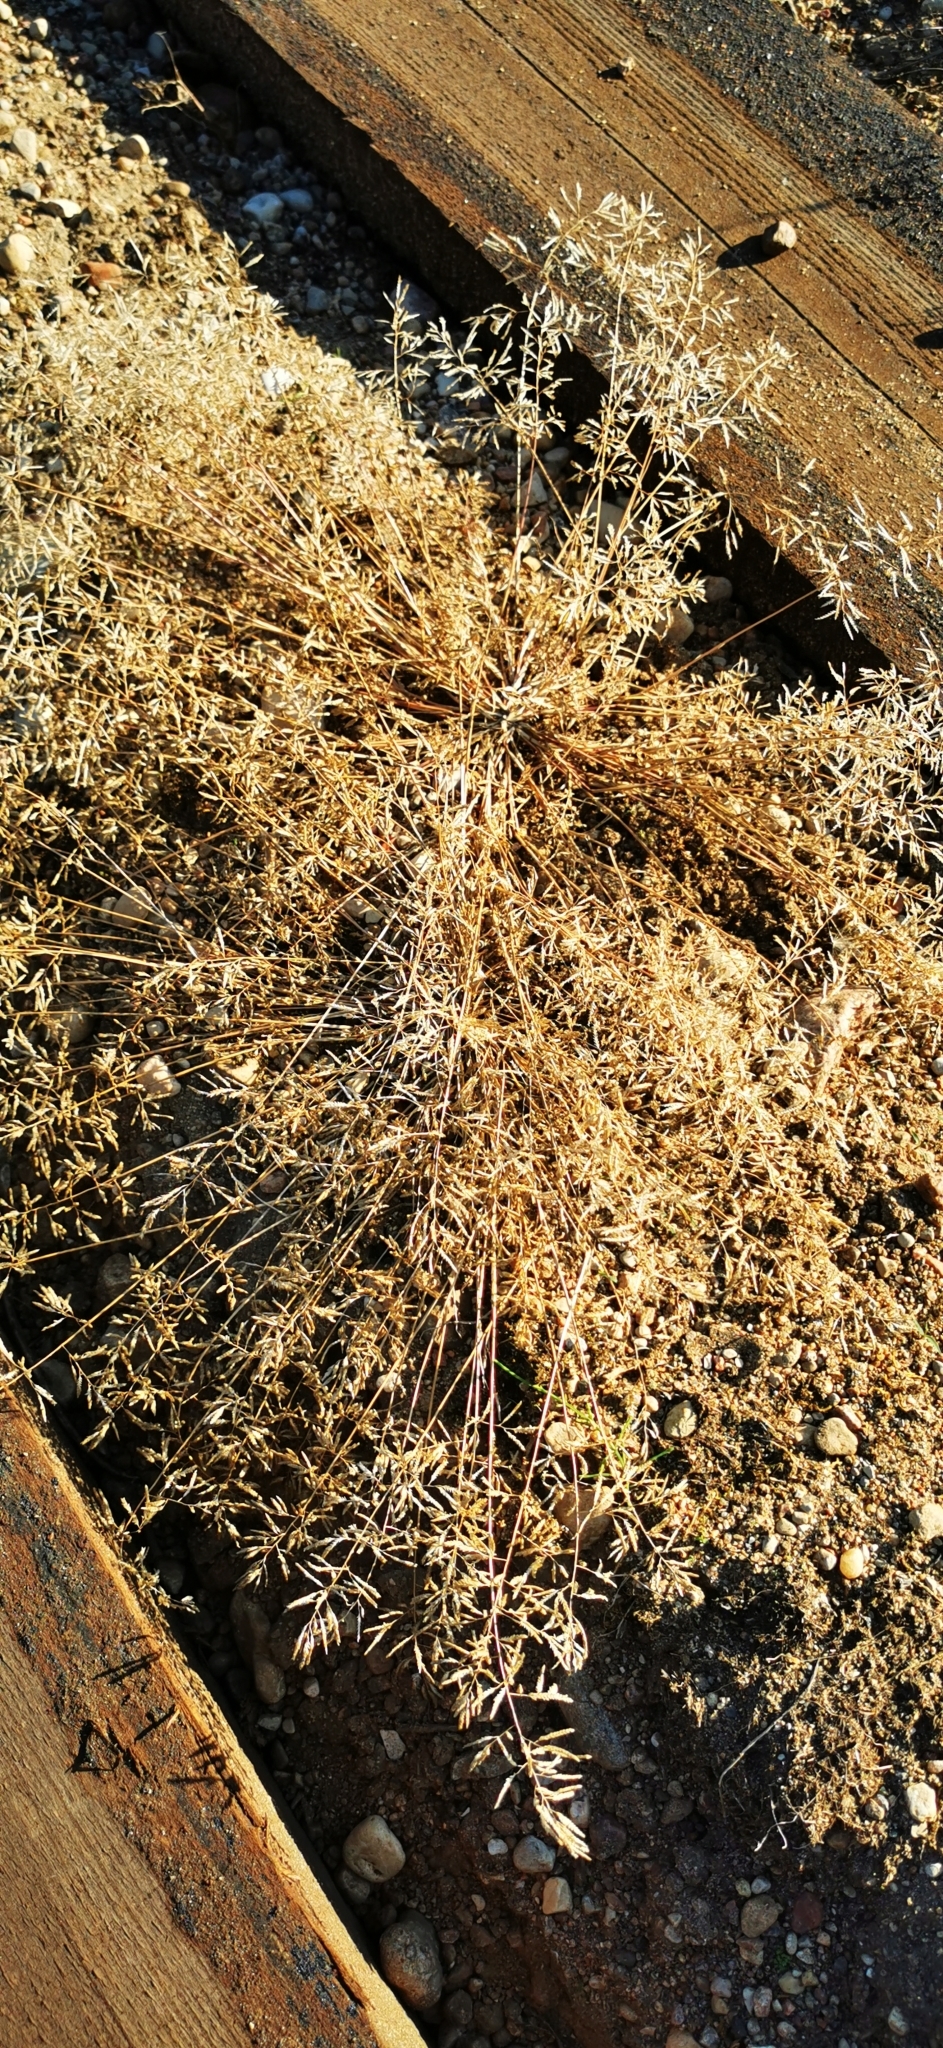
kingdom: Plantae
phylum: Tracheophyta
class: Liliopsida
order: Poales
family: Poaceae
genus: Eragrostis
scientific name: Eragrostis minor
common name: Small love-grass
